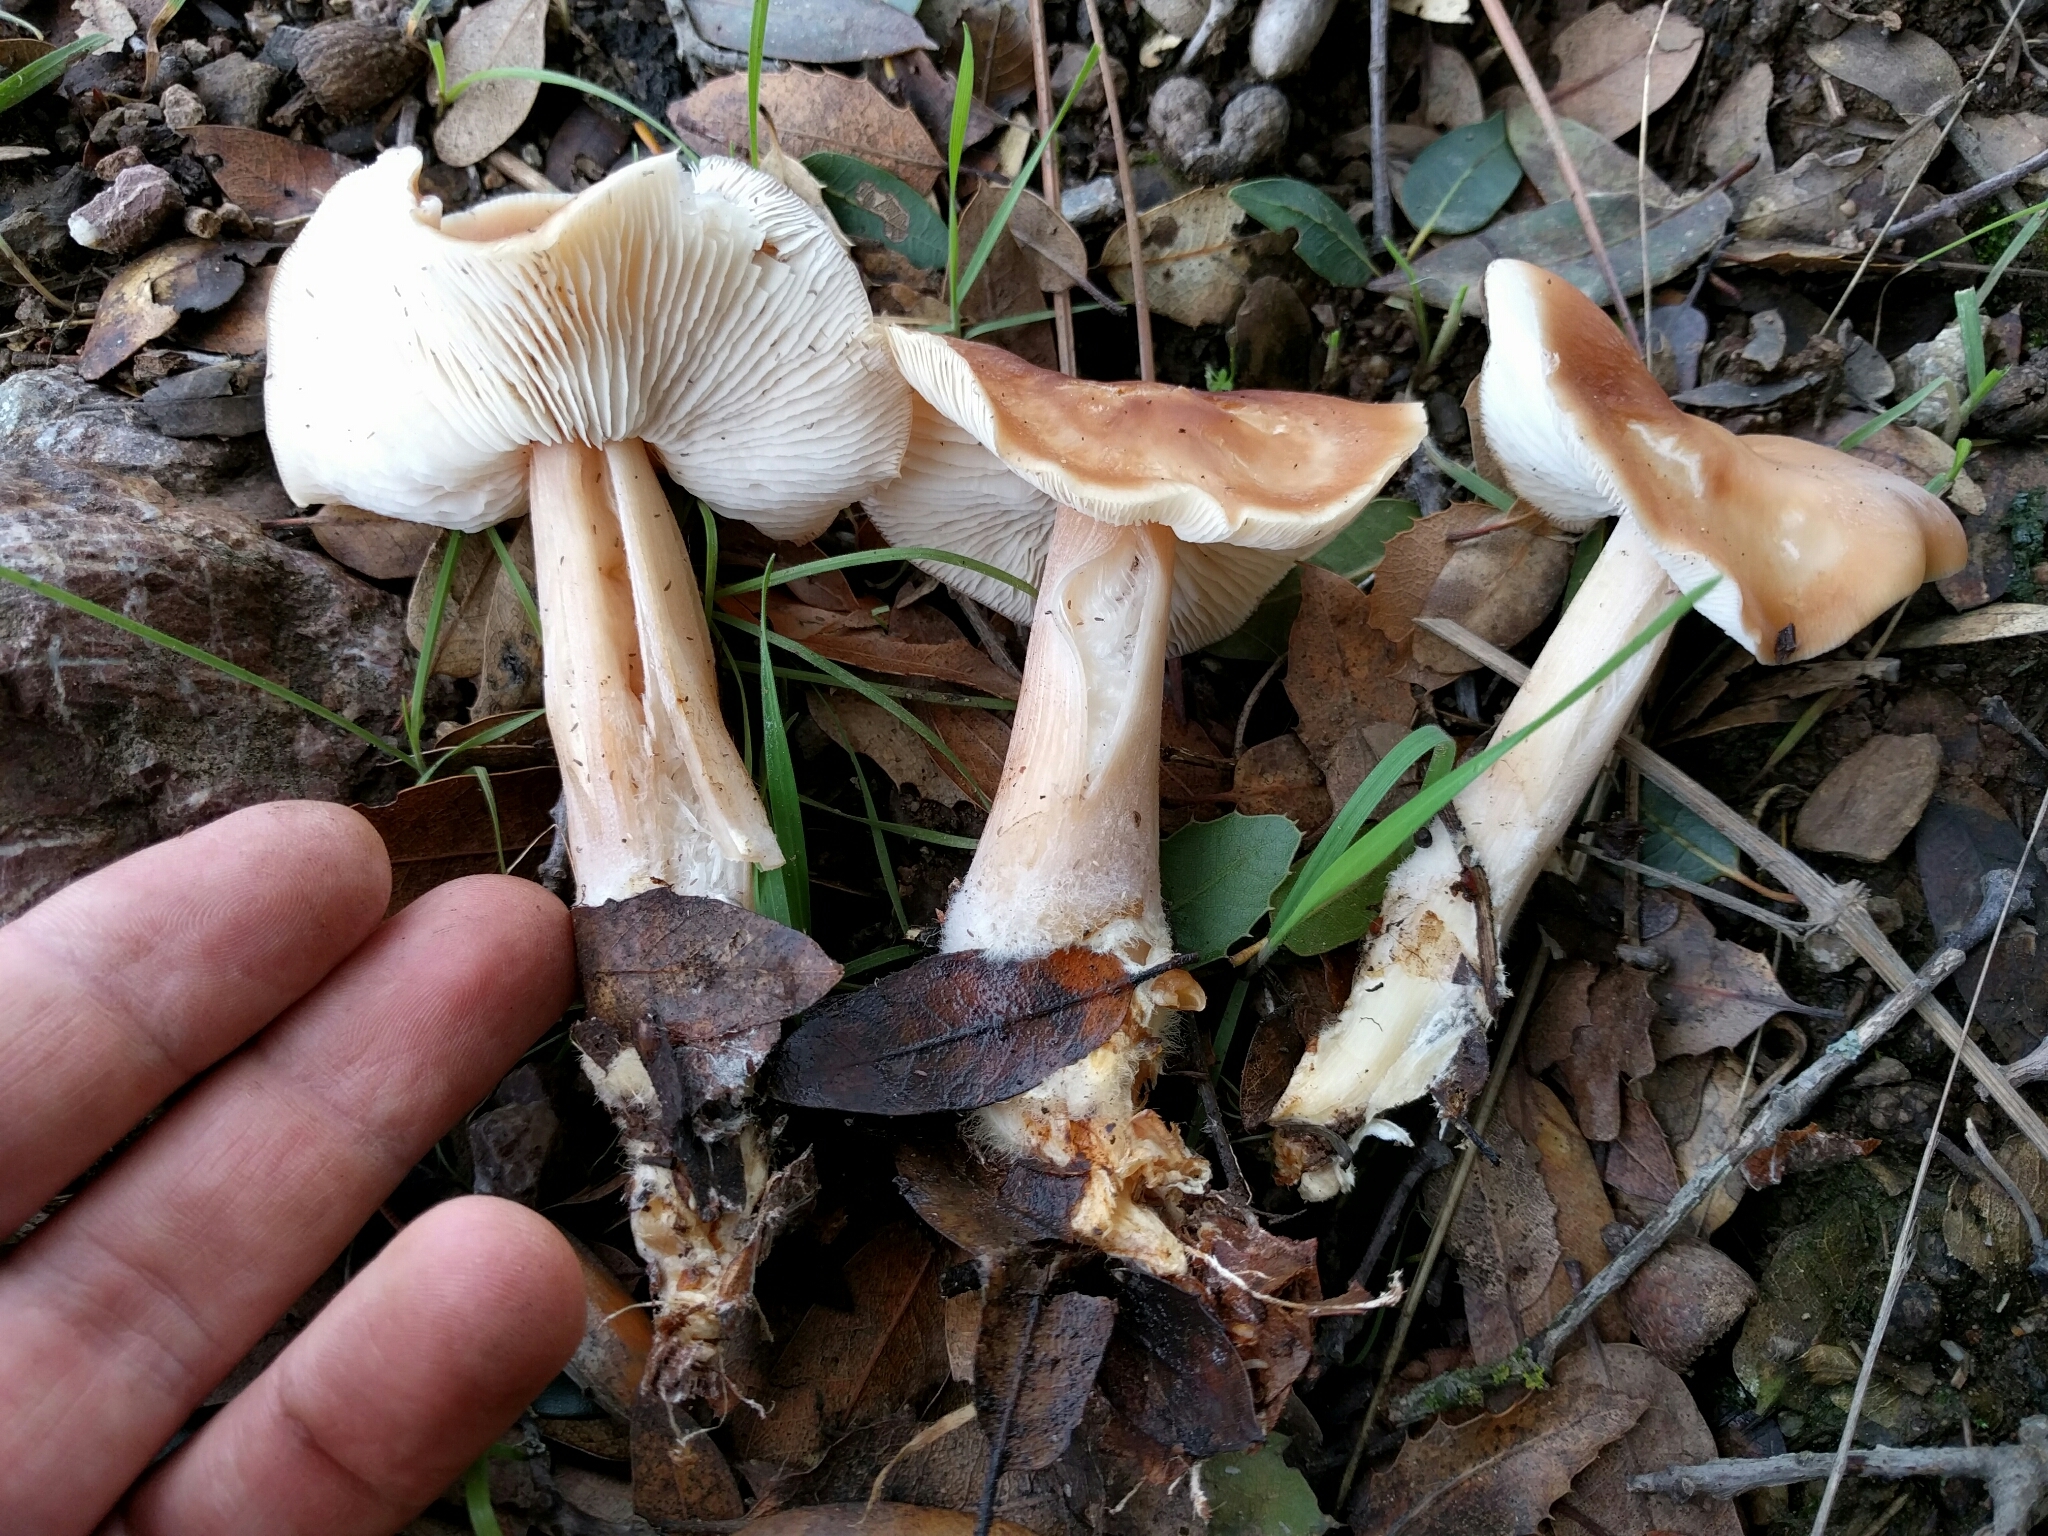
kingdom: Fungi
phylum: Basidiomycota
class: Agaricomycetes
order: Agaricales
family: Omphalotaceae
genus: Gymnopus
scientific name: Gymnopus dryophilus
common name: Penny top
